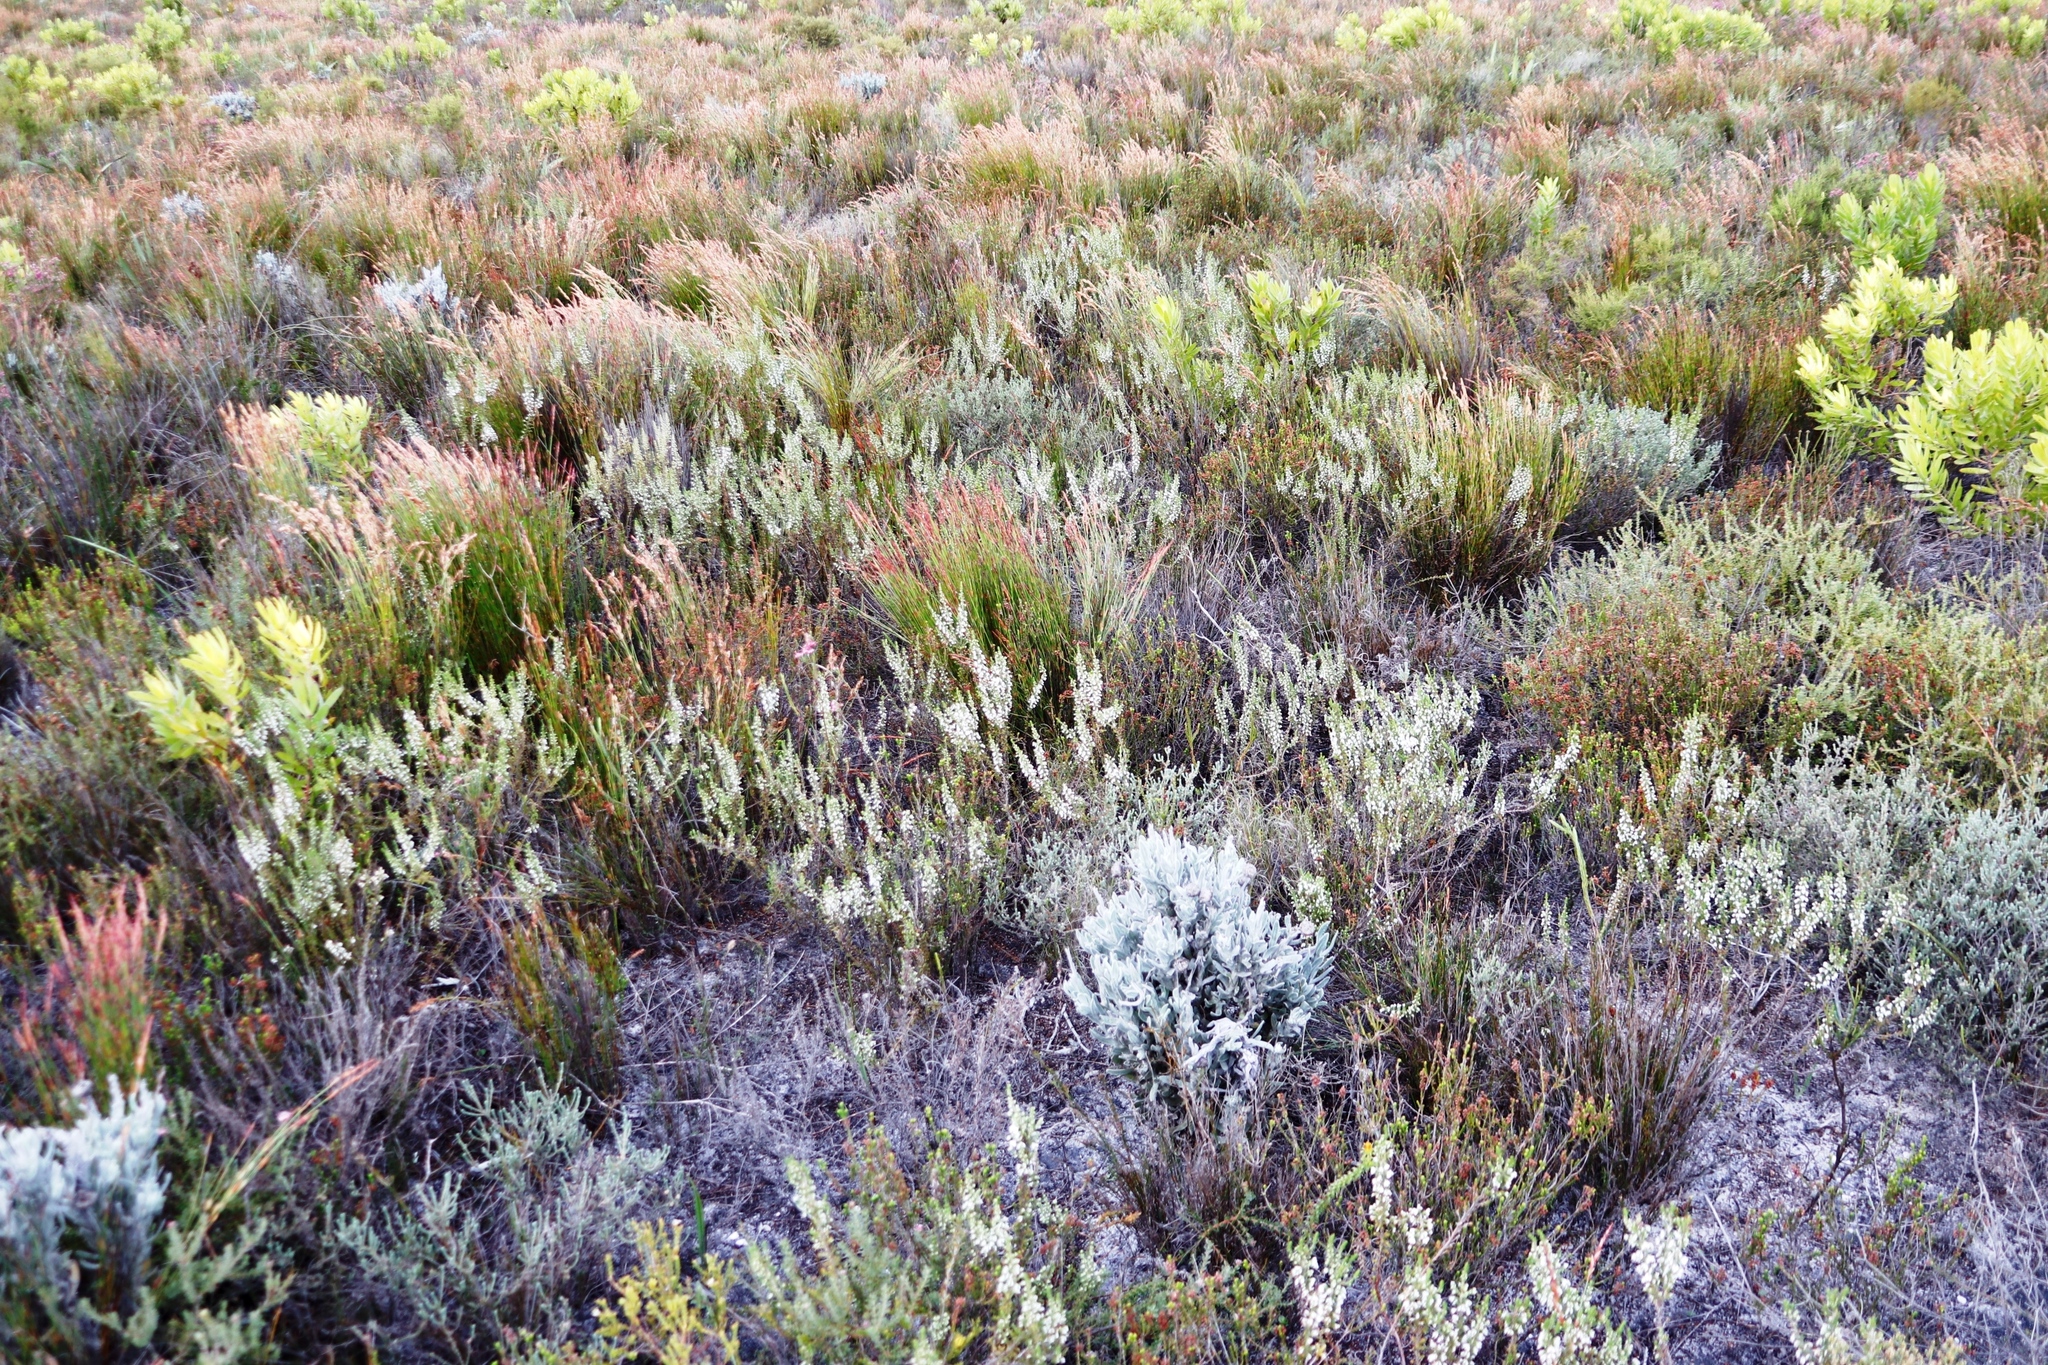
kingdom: Plantae
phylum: Tracheophyta
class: Magnoliopsida
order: Ericales
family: Ericaceae
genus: Erica
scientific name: Erica imbricata
